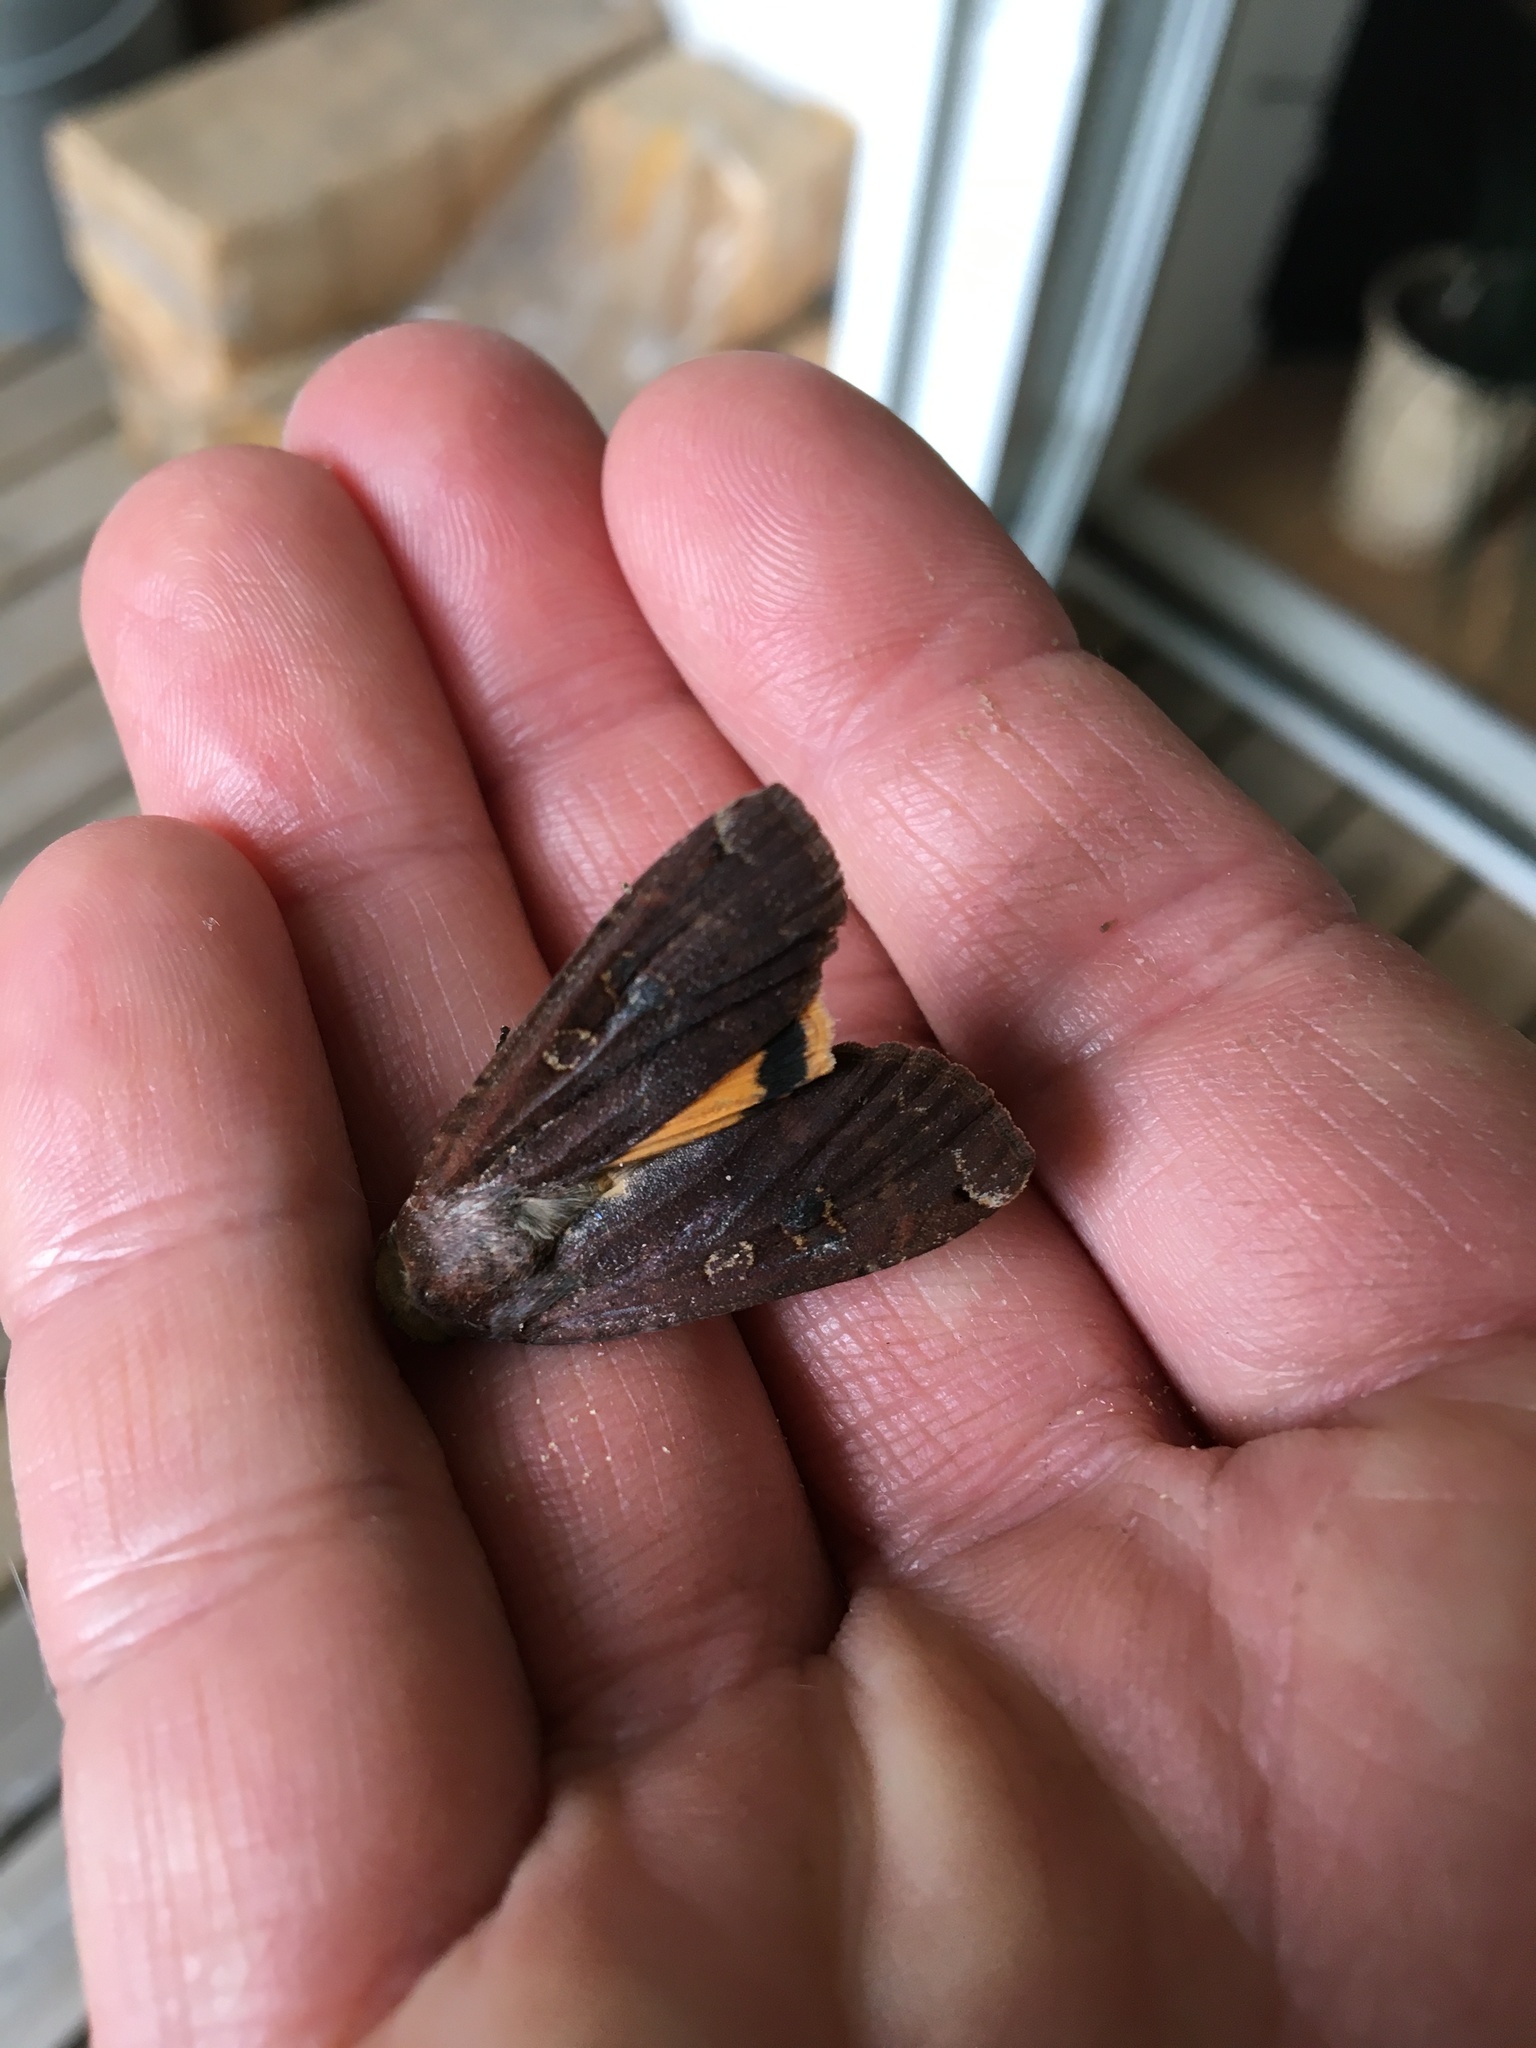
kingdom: Animalia
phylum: Arthropoda
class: Insecta
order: Lepidoptera
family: Noctuidae
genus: Noctua
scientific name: Noctua pronuba
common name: Large yellow underwing
